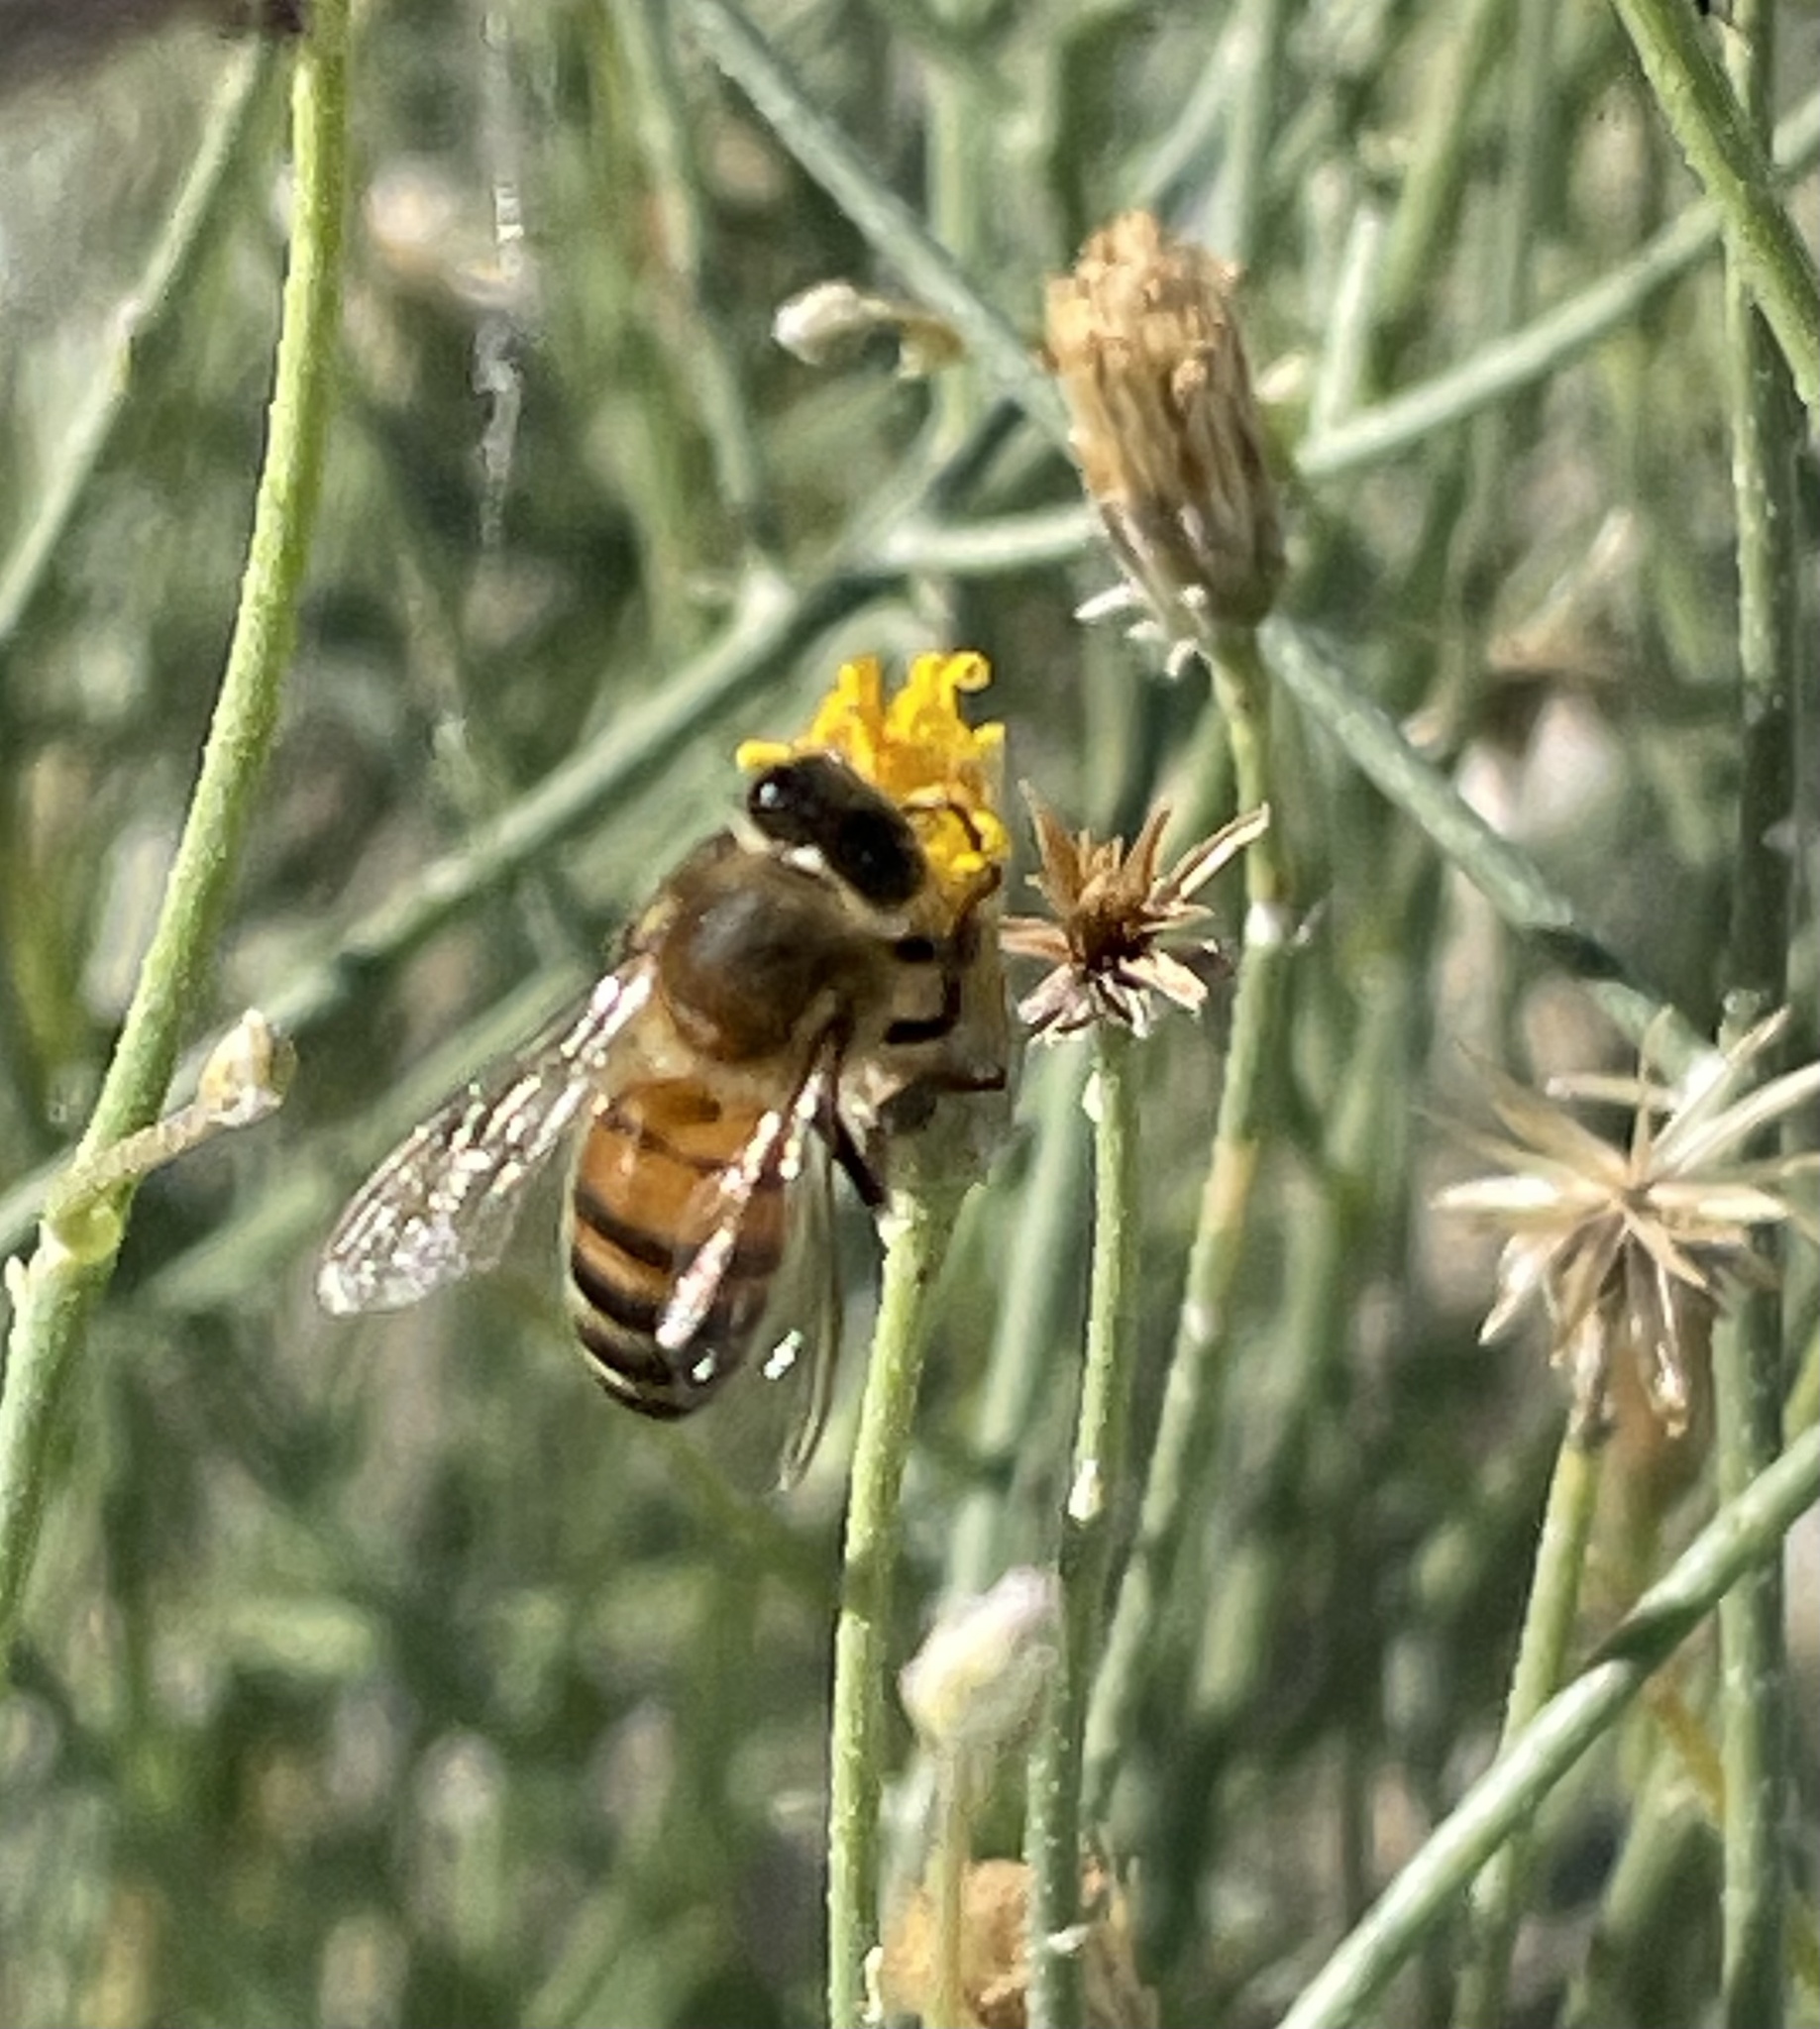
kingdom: Animalia
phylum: Arthropoda
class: Insecta
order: Hymenoptera
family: Apidae
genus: Apis
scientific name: Apis mellifera
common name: Honey bee
